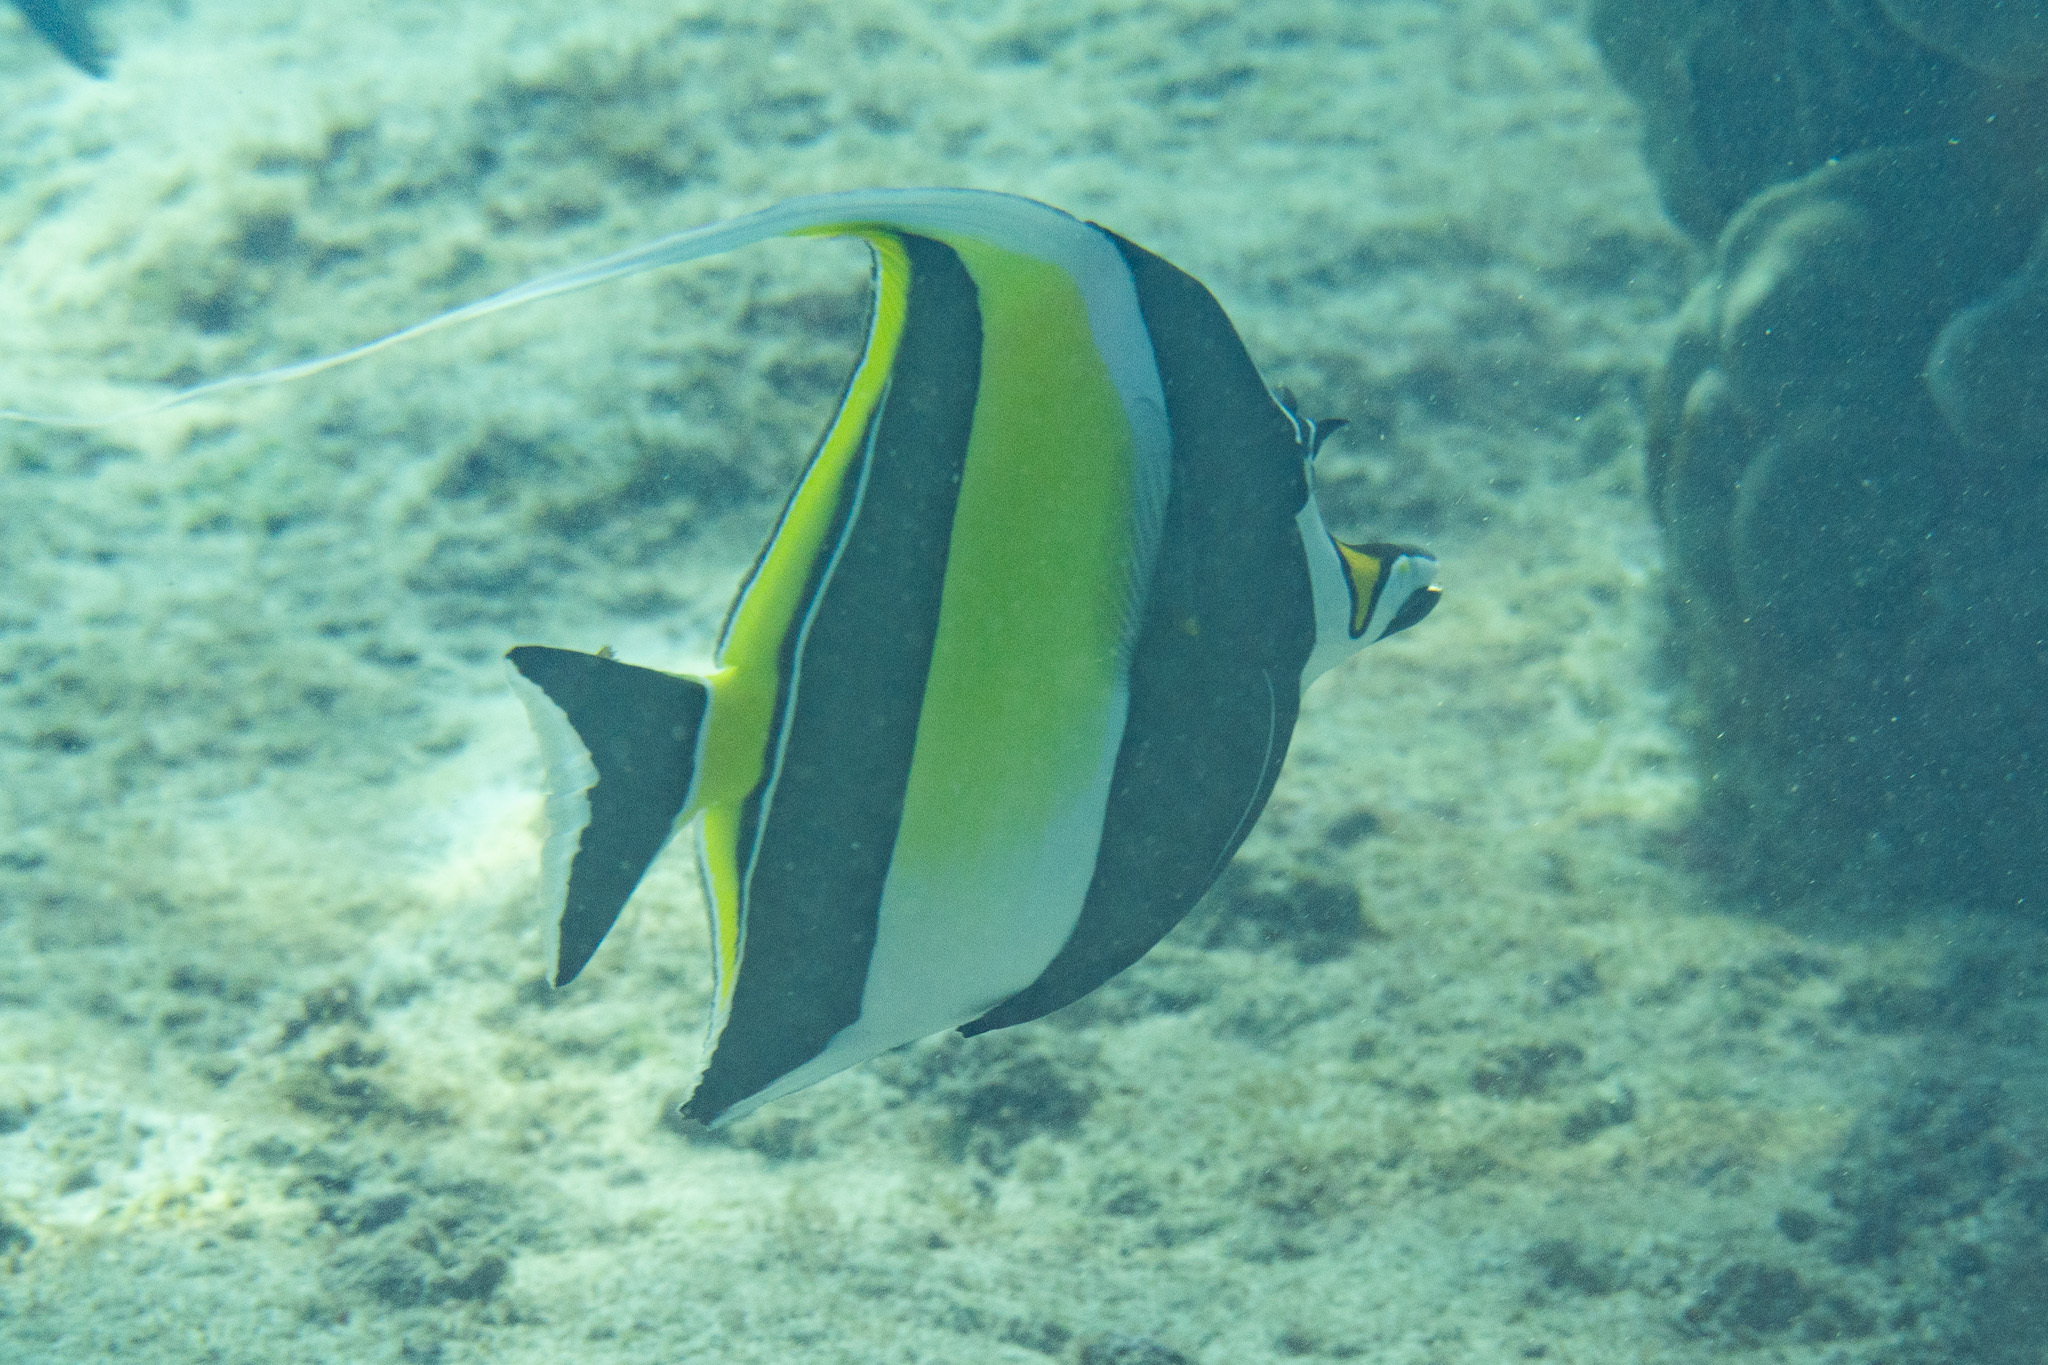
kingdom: Animalia
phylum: Chordata
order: Perciformes
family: Zanclidae
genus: Zanclus
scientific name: Zanclus cornutus
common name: Moorish idol
